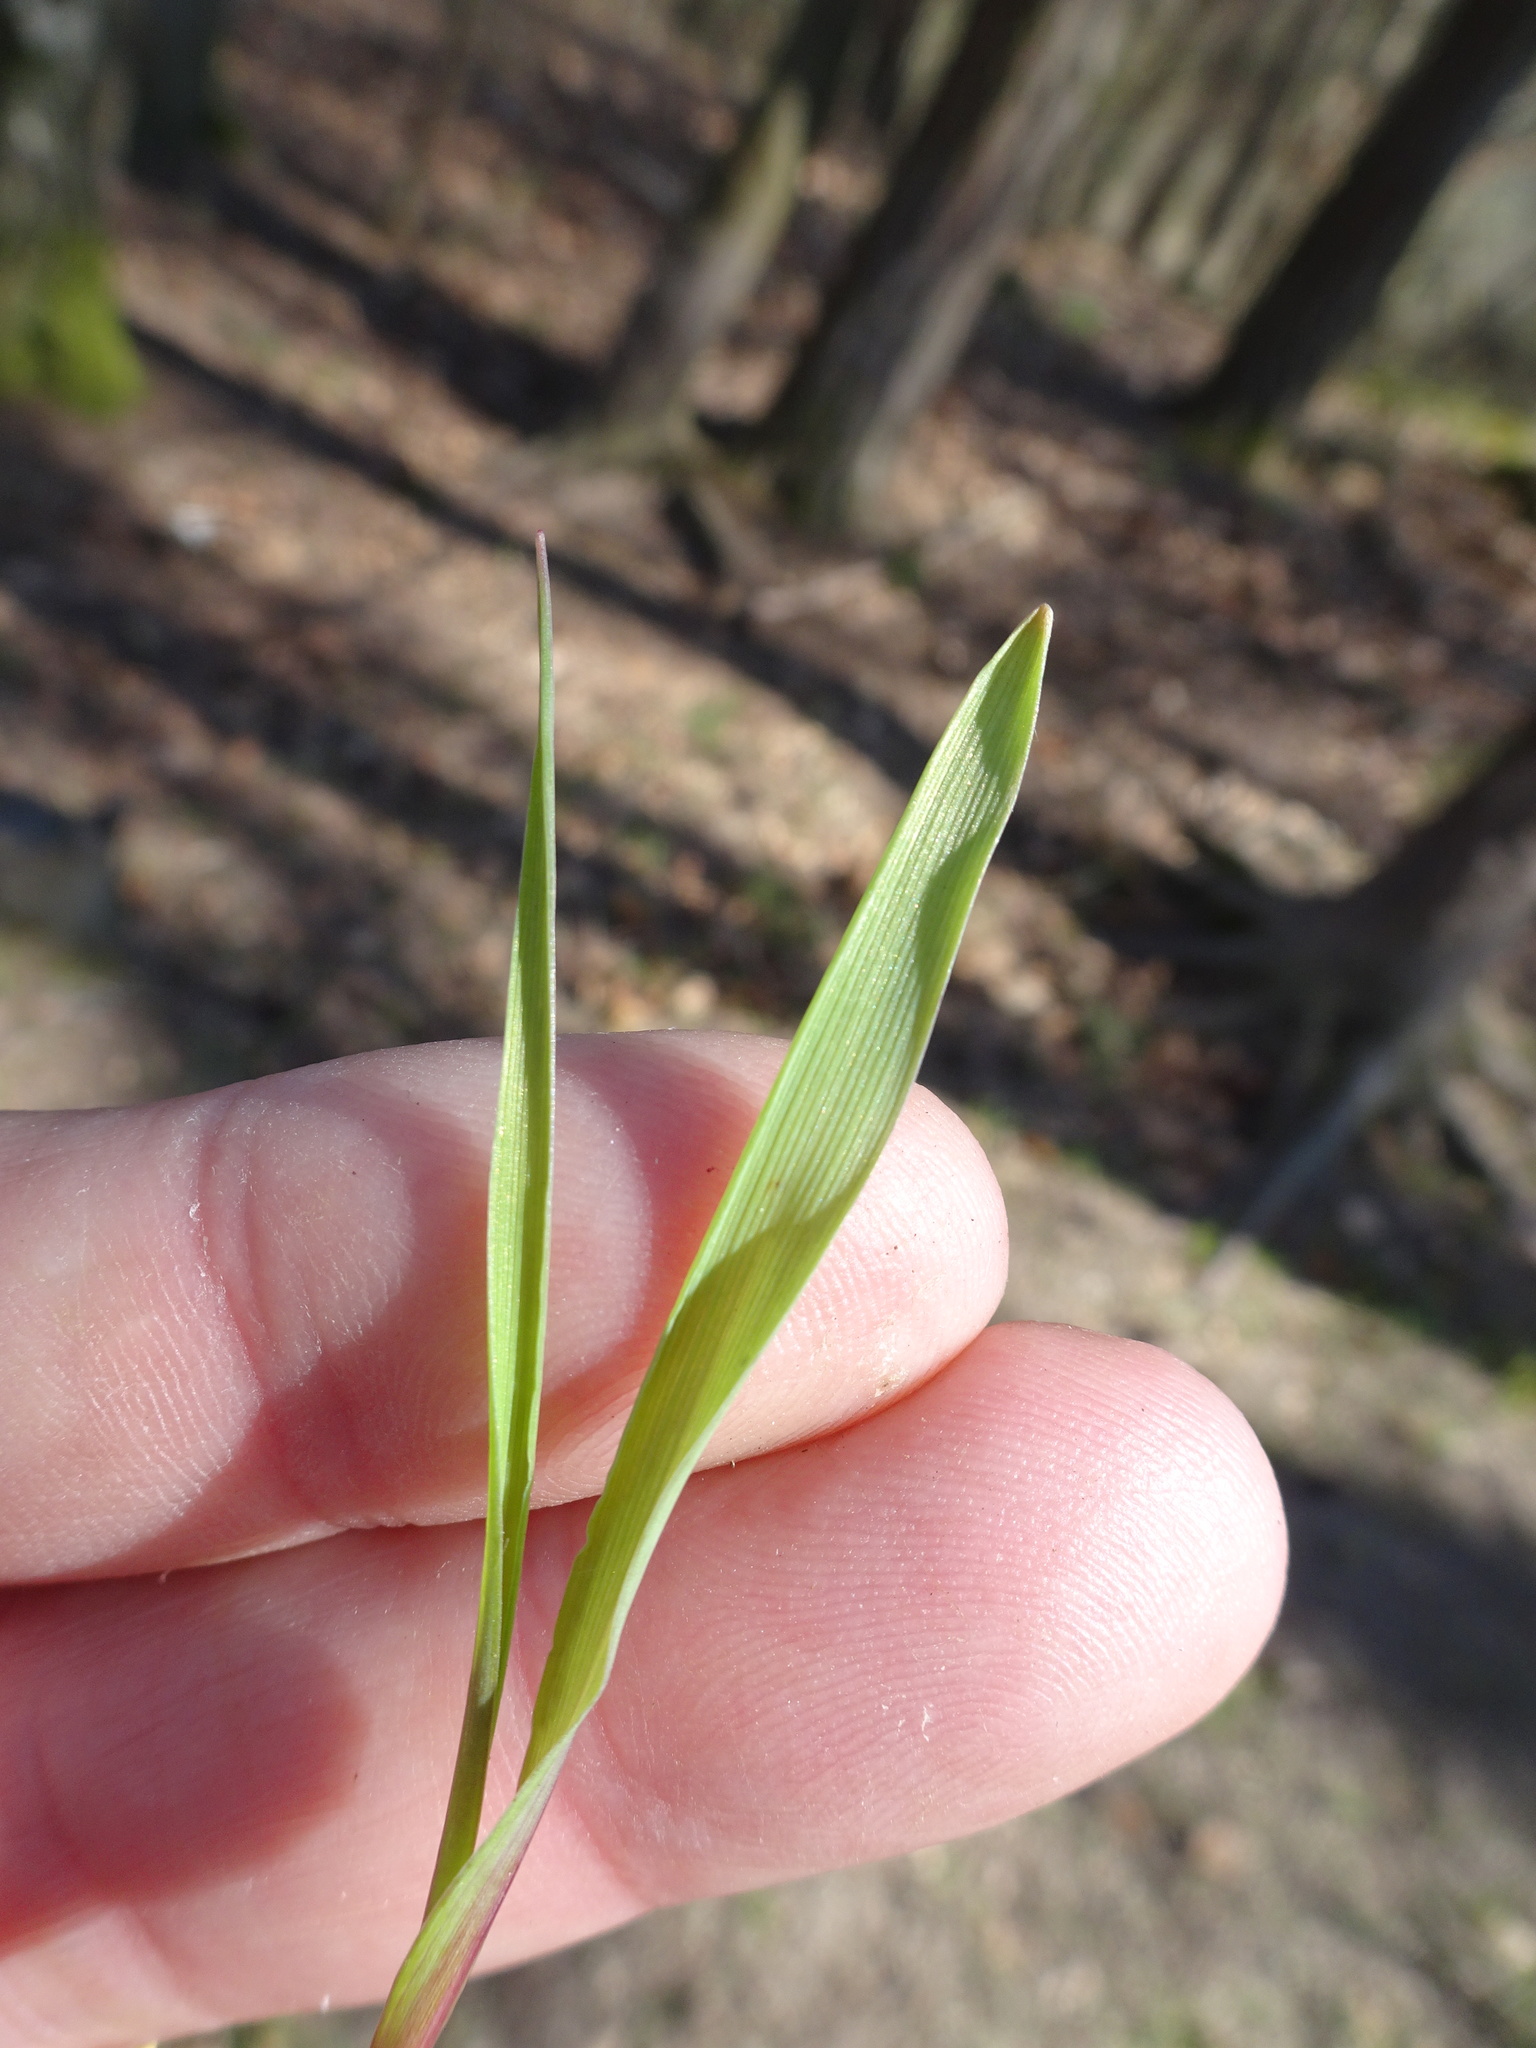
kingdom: Plantae
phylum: Tracheophyta
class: Liliopsida
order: Poales
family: Poaceae
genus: Poa
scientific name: Poa chaixii
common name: Broad-leaved meadow-grass
